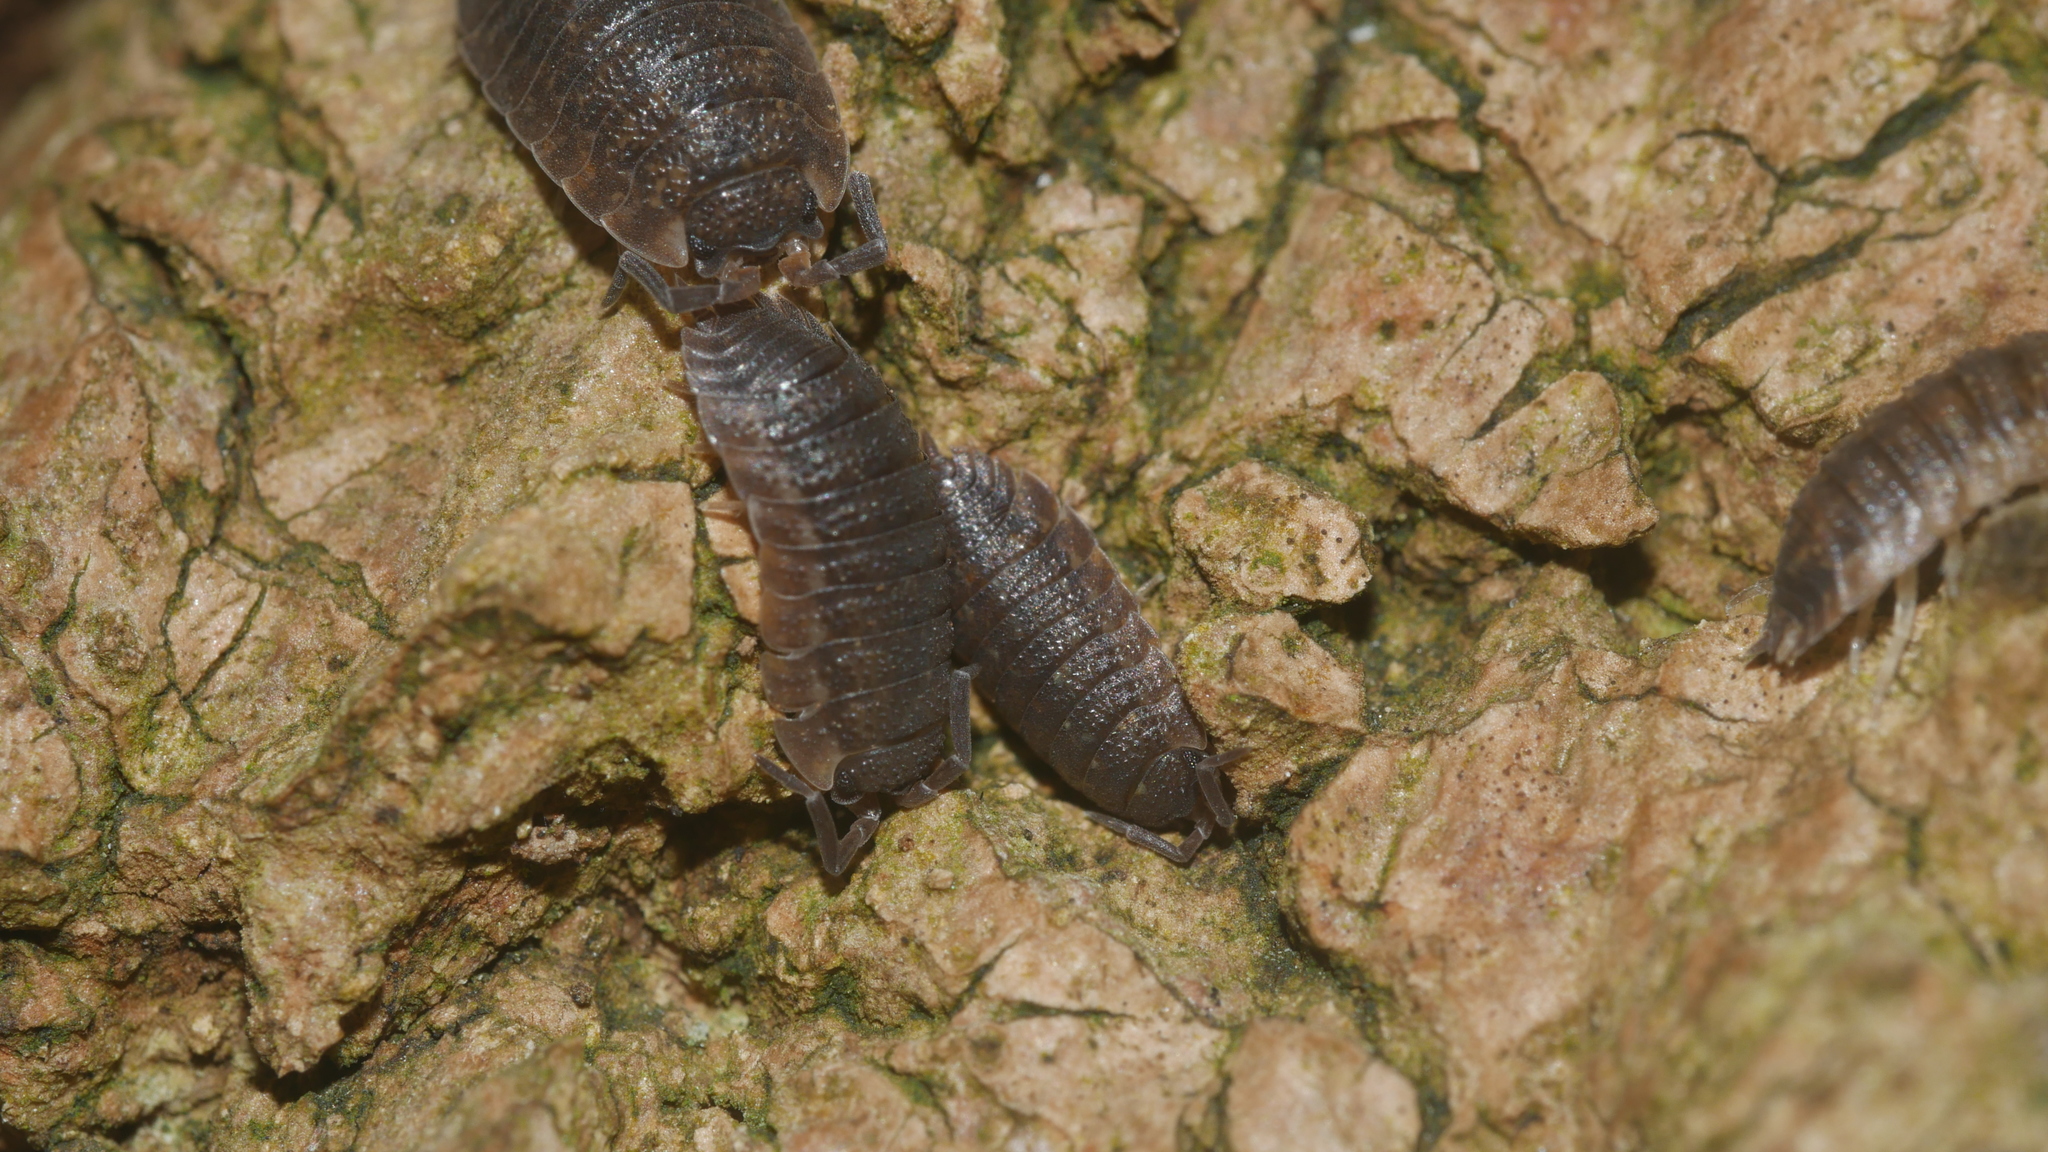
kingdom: Animalia
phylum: Arthropoda
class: Malacostraca
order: Isopoda
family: Porcellionidae
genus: Porcellio
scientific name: Porcellio scaber
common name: Common rough woodlouse
